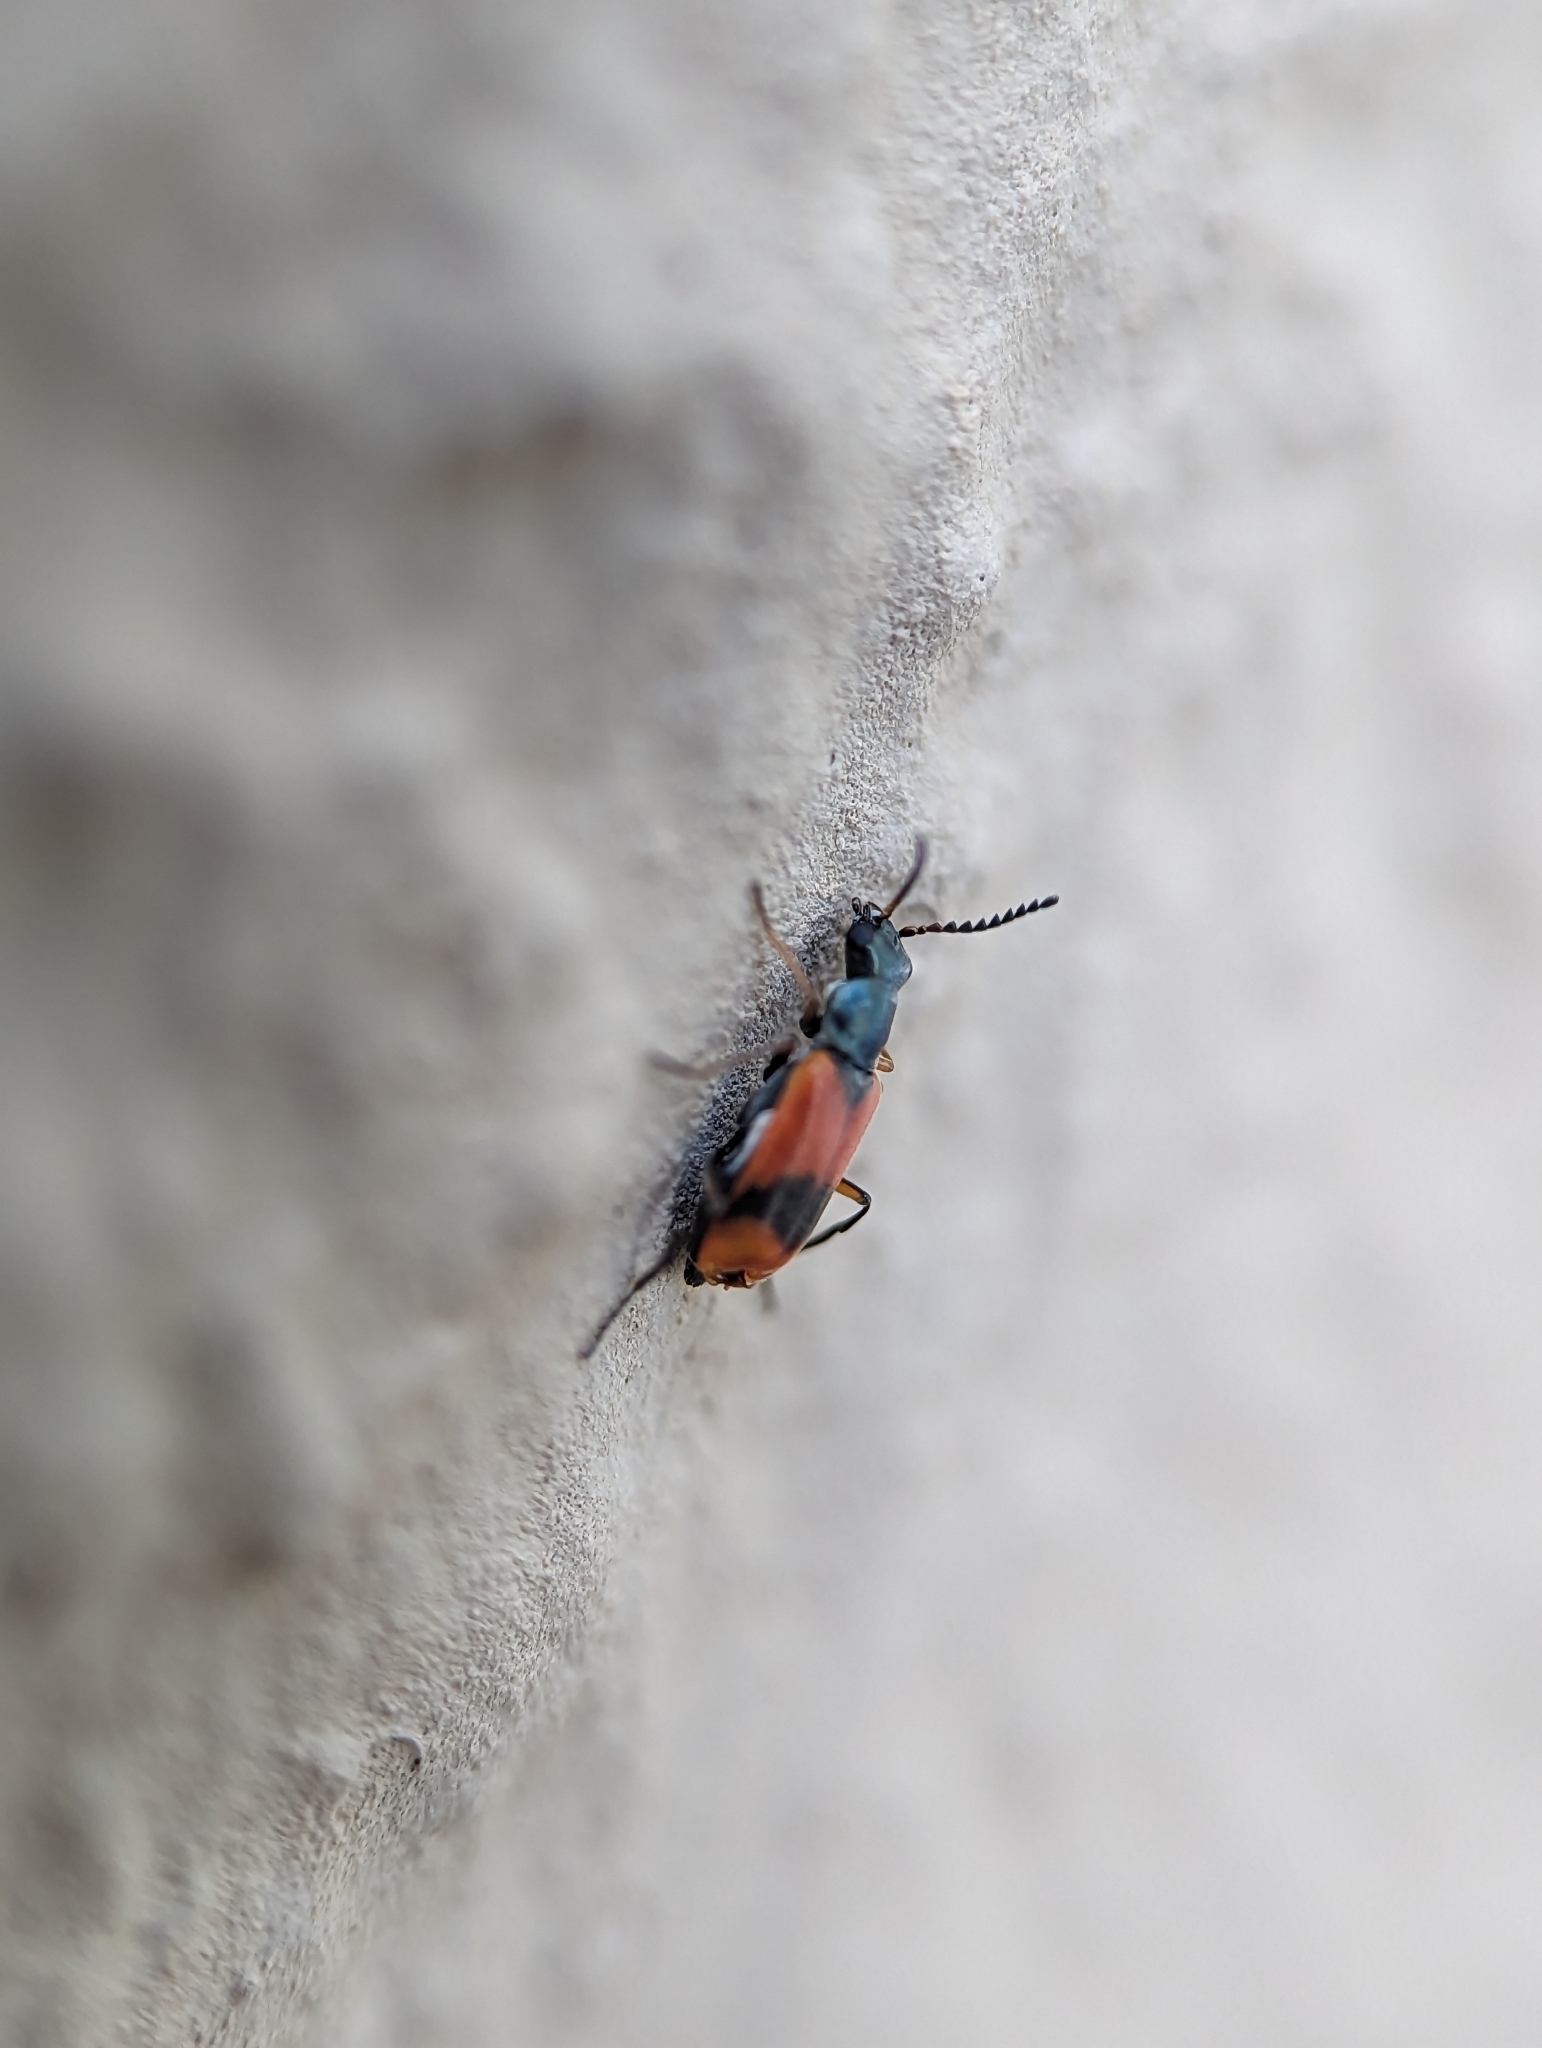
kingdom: Animalia
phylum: Arthropoda
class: Insecta
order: Coleoptera
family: Melyridae
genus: Anthocomus
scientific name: Anthocomus equestris
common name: Black-banded soft-winged flower beetle
